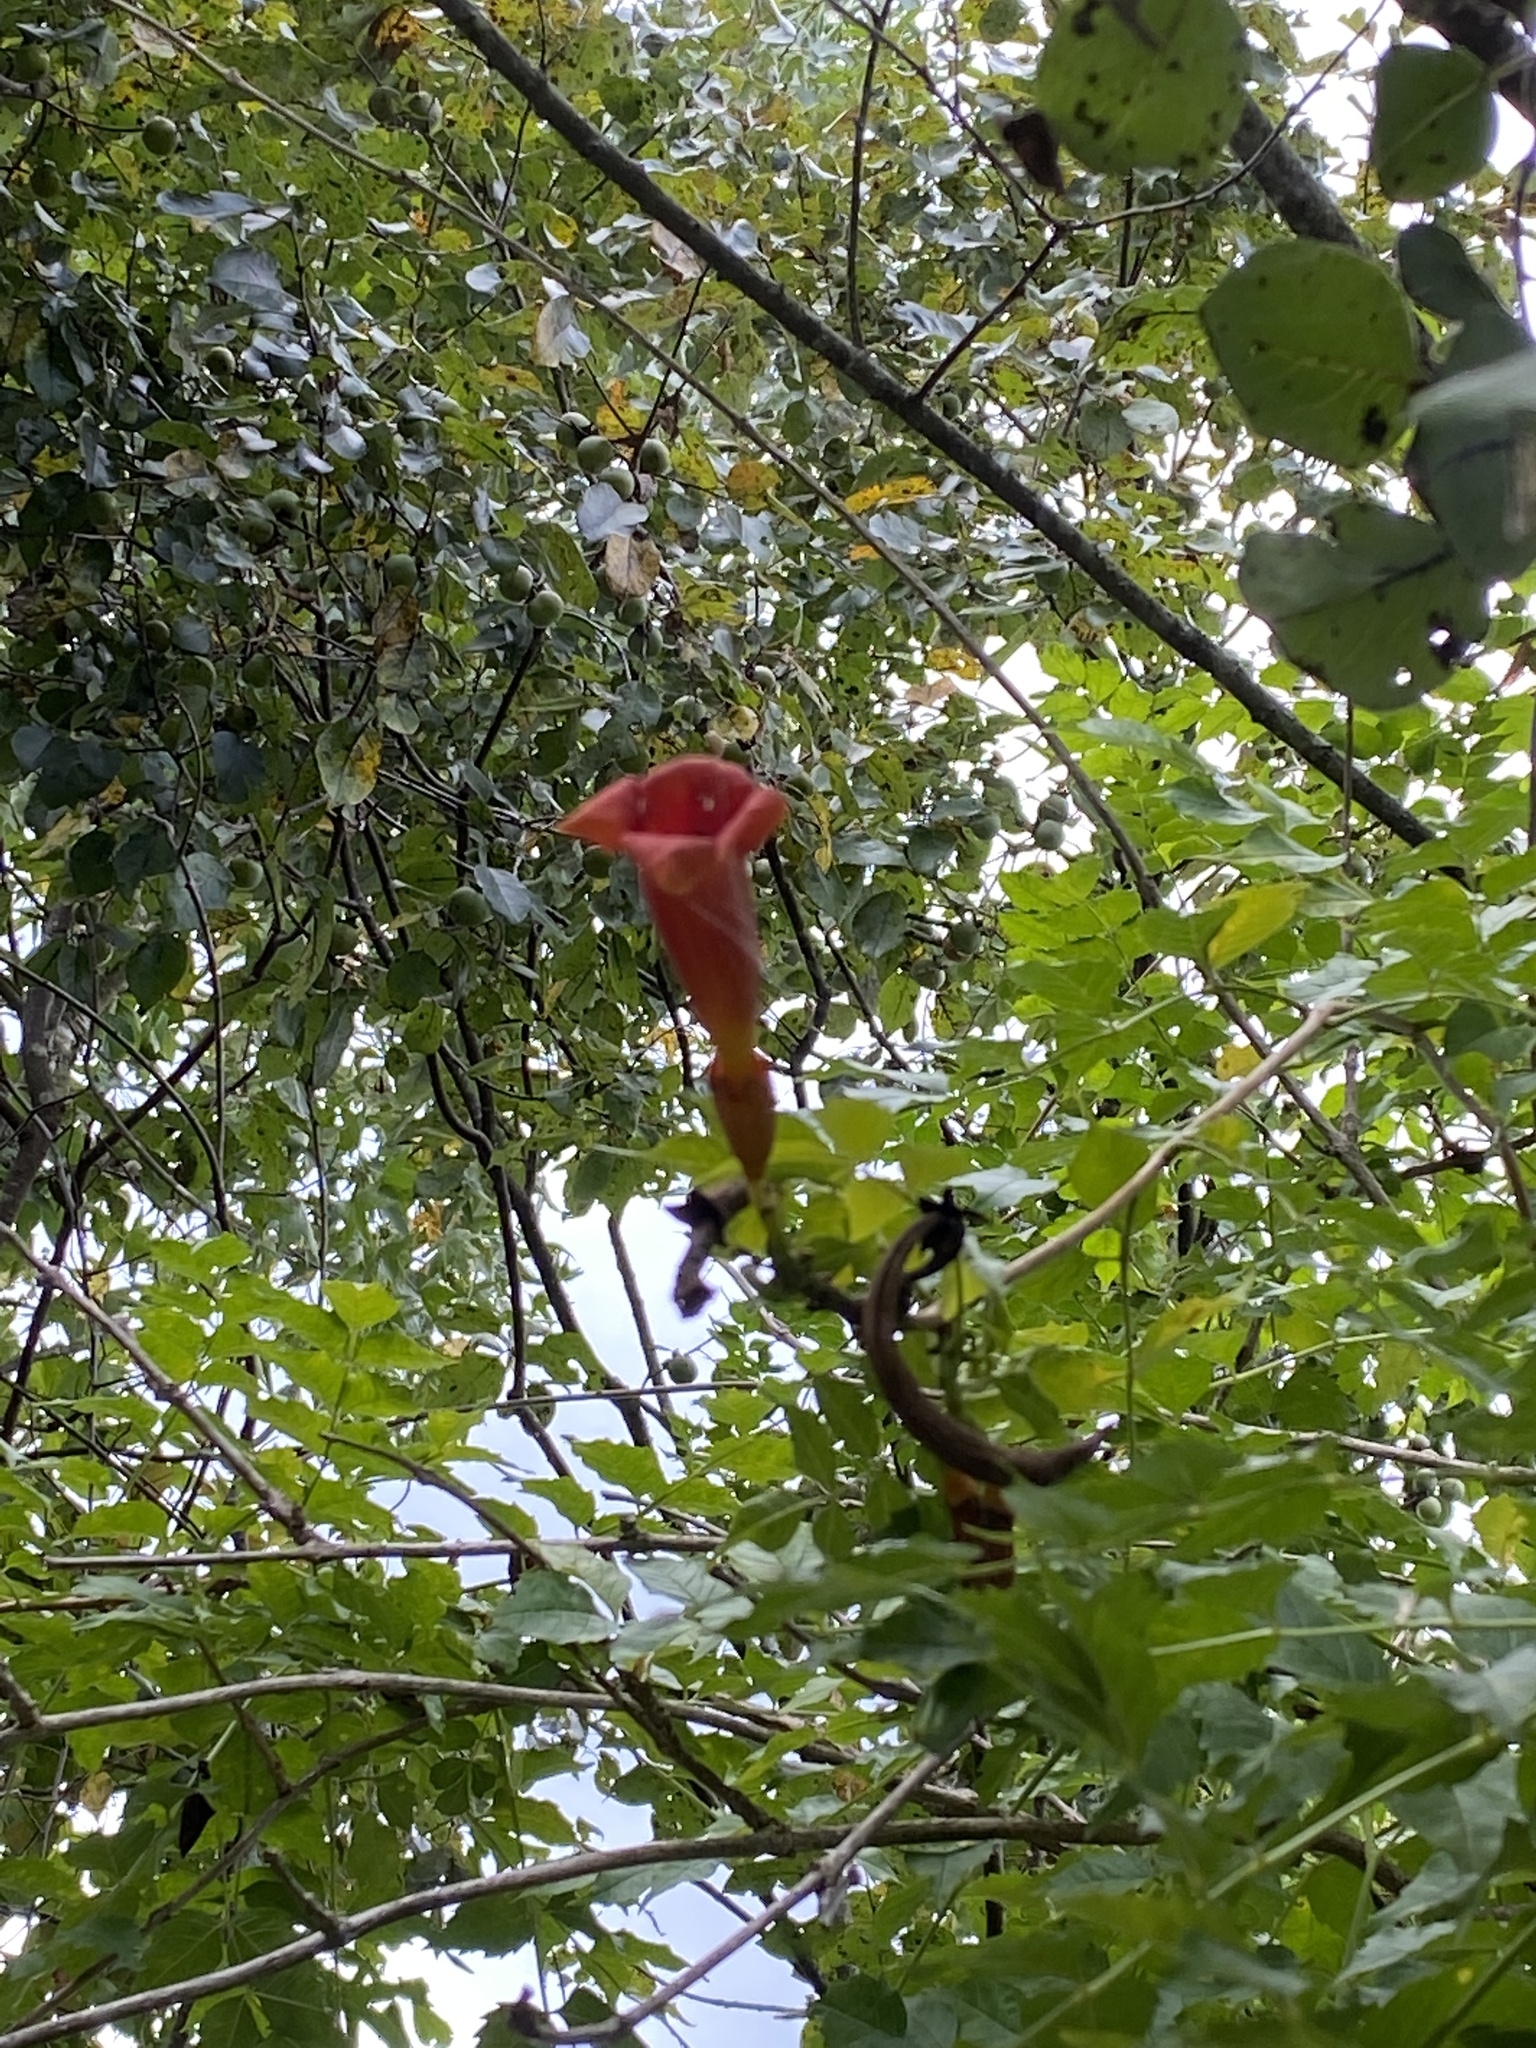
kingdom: Plantae
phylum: Tracheophyta
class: Magnoliopsida
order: Lamiales
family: Bignoniaceae
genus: Campsis
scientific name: Campsis radicans
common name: Trumpet-creeper
